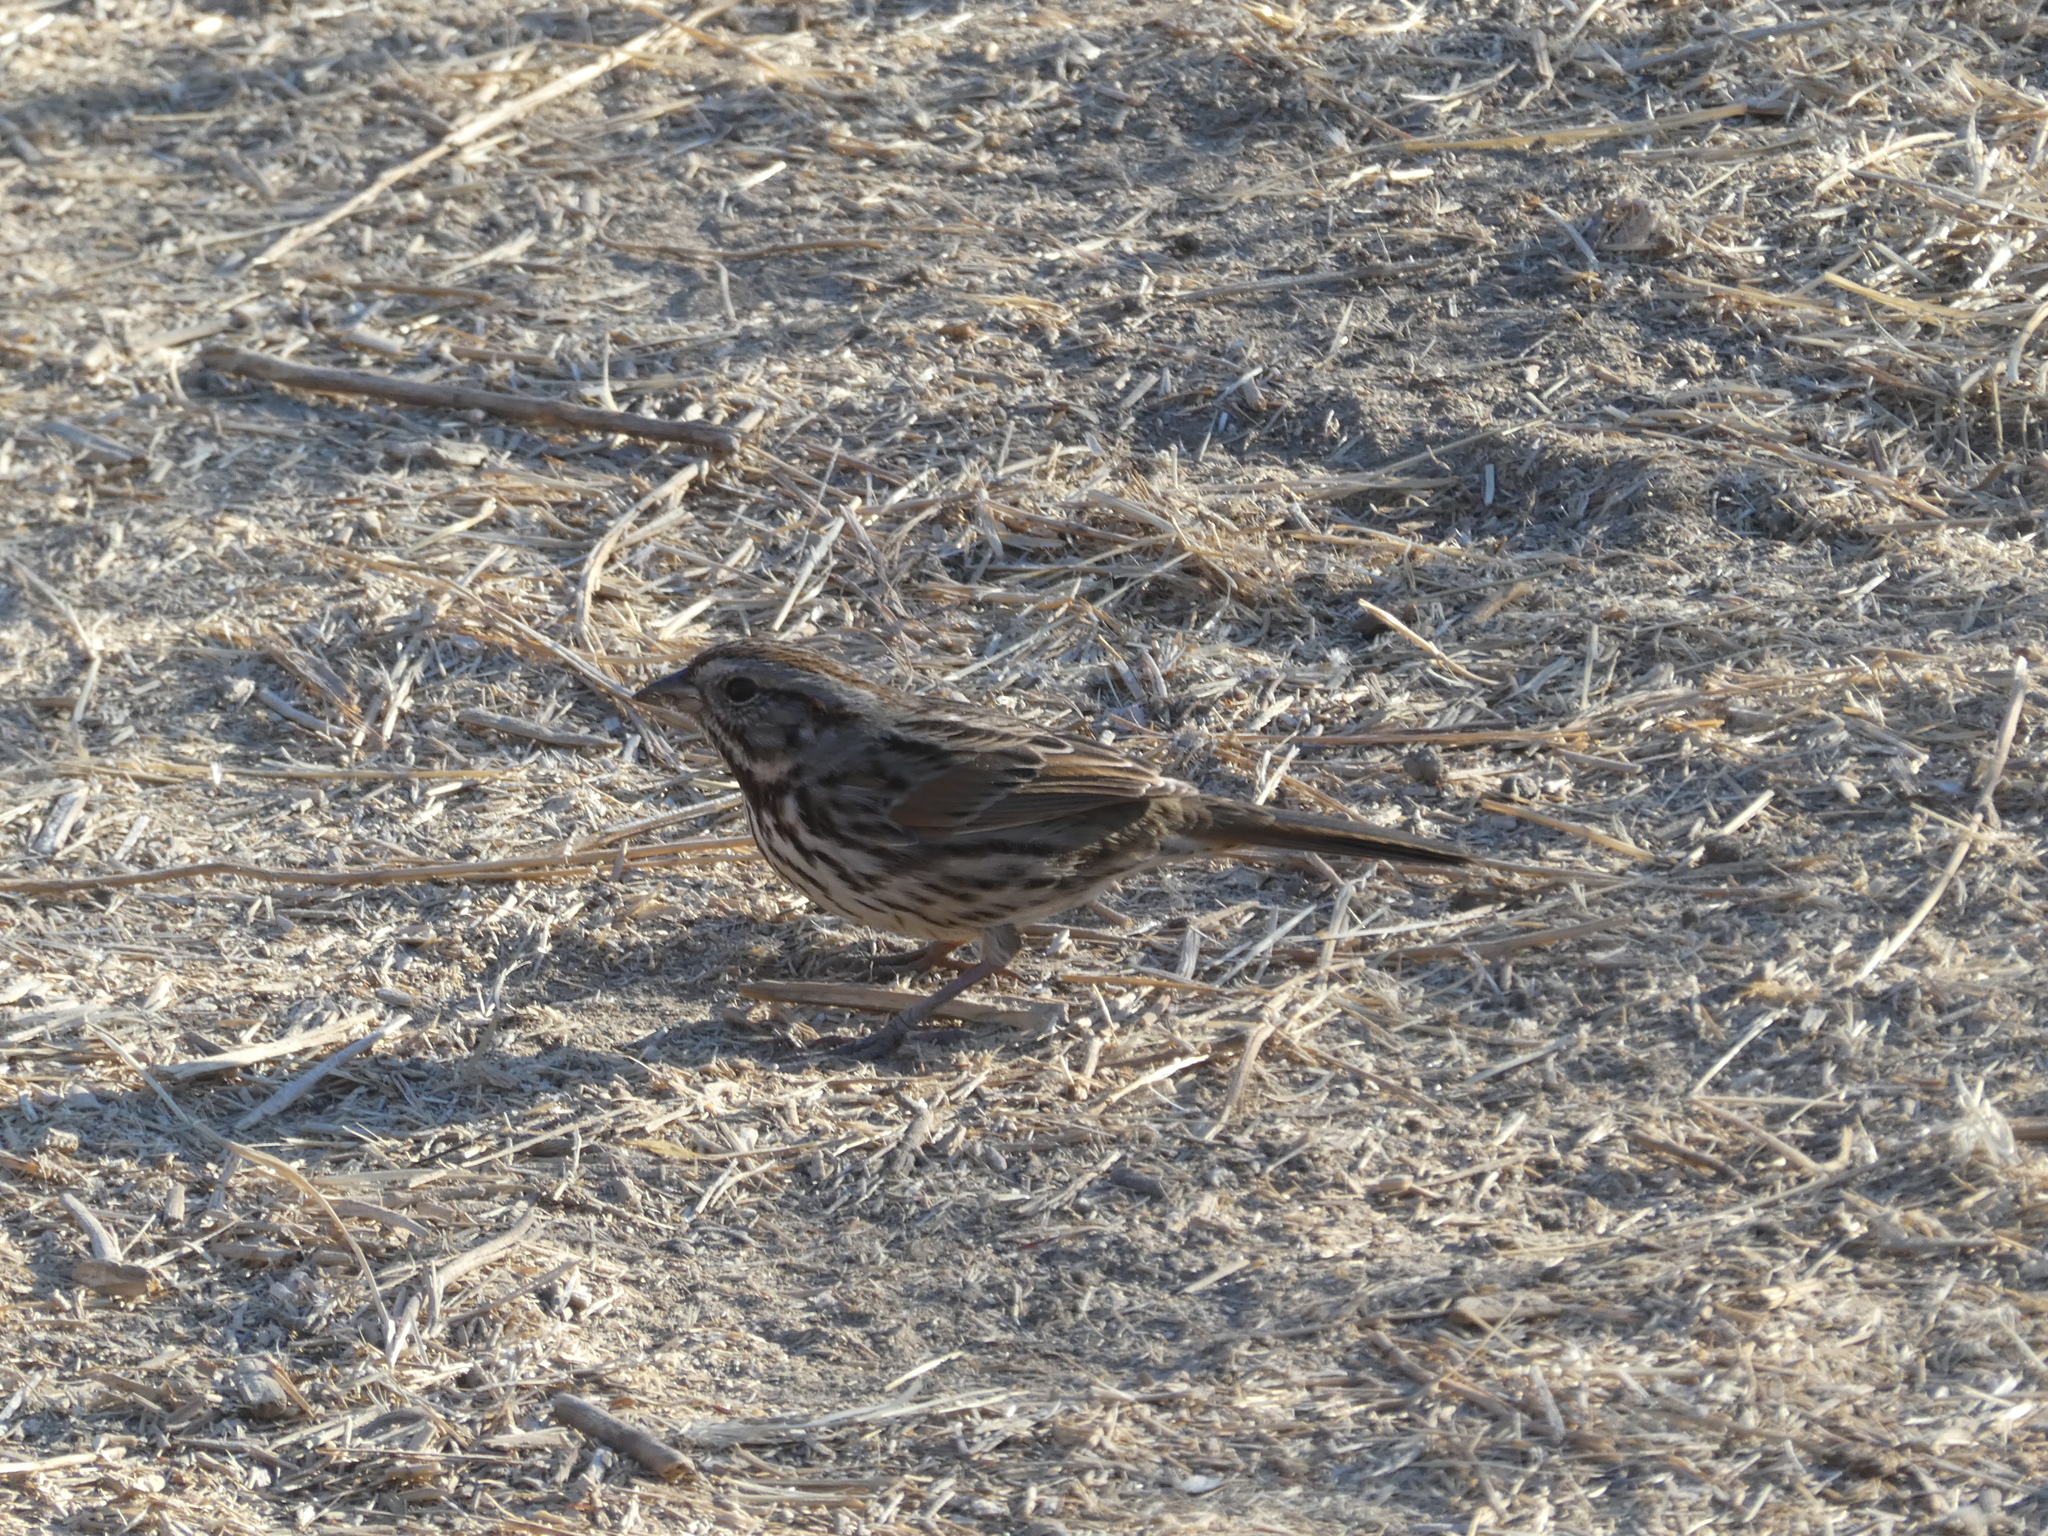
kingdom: Animalia
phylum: Chordata
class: Aves
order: Passeriformes
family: Passerellidae
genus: Melospiza
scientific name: Melospiza melodia
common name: Song sparrow
